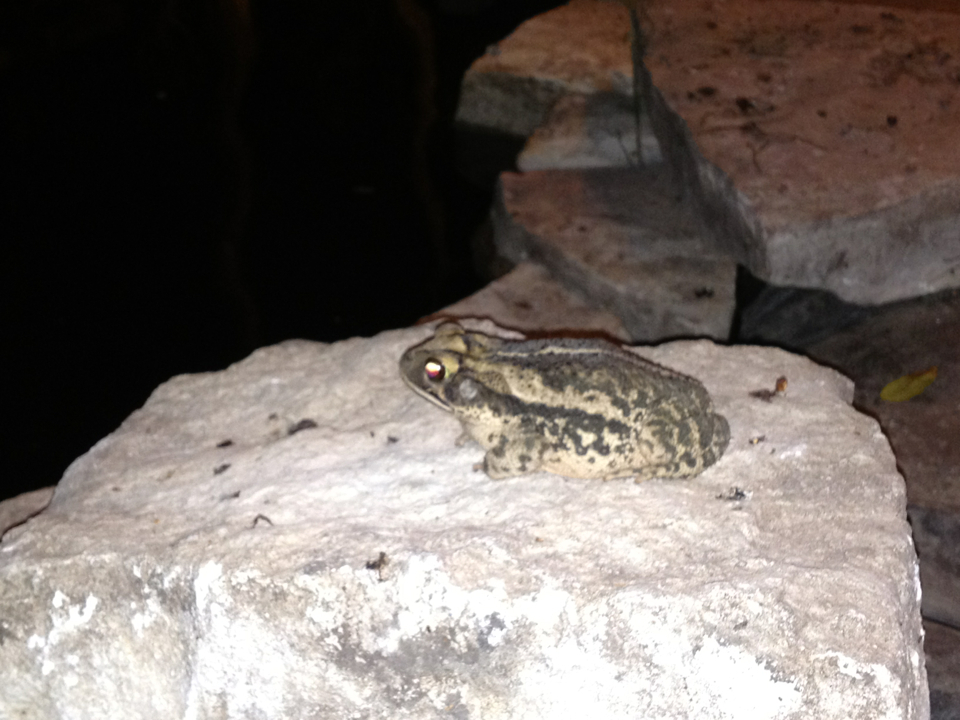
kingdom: Animalia
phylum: Chordata
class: Amphibia
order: Anura
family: Bufonidae
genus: Incilius
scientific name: Incilius nebulifer
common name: Gulf coast toad
